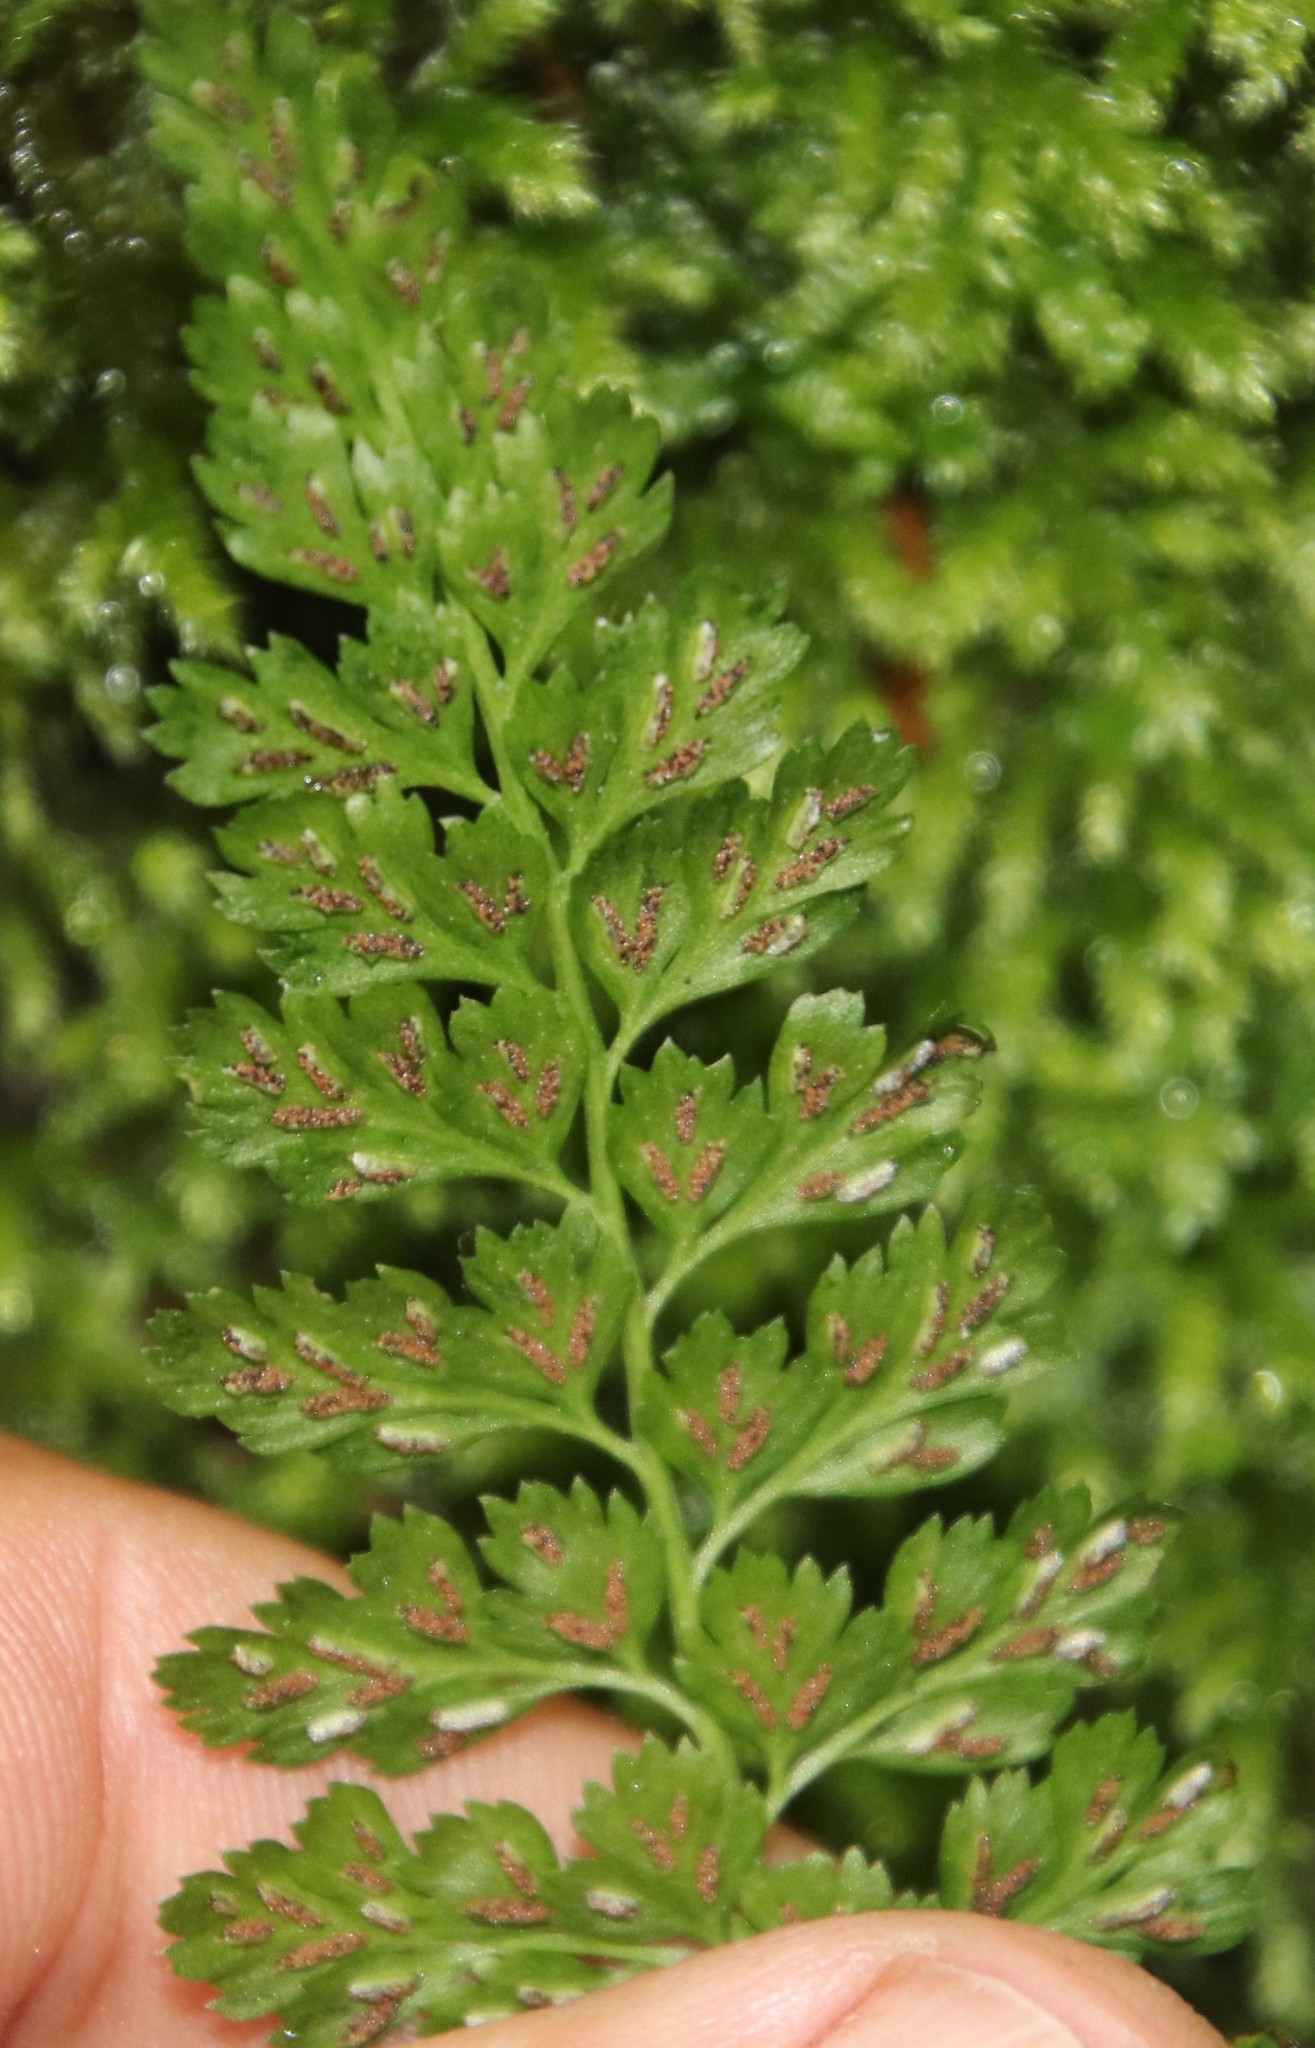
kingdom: Plantae
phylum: Tracheophyta
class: Polypodiopsida
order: Polypodiales
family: Aspleniaceae
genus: Asplenium
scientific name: Asplenium laciniatum
